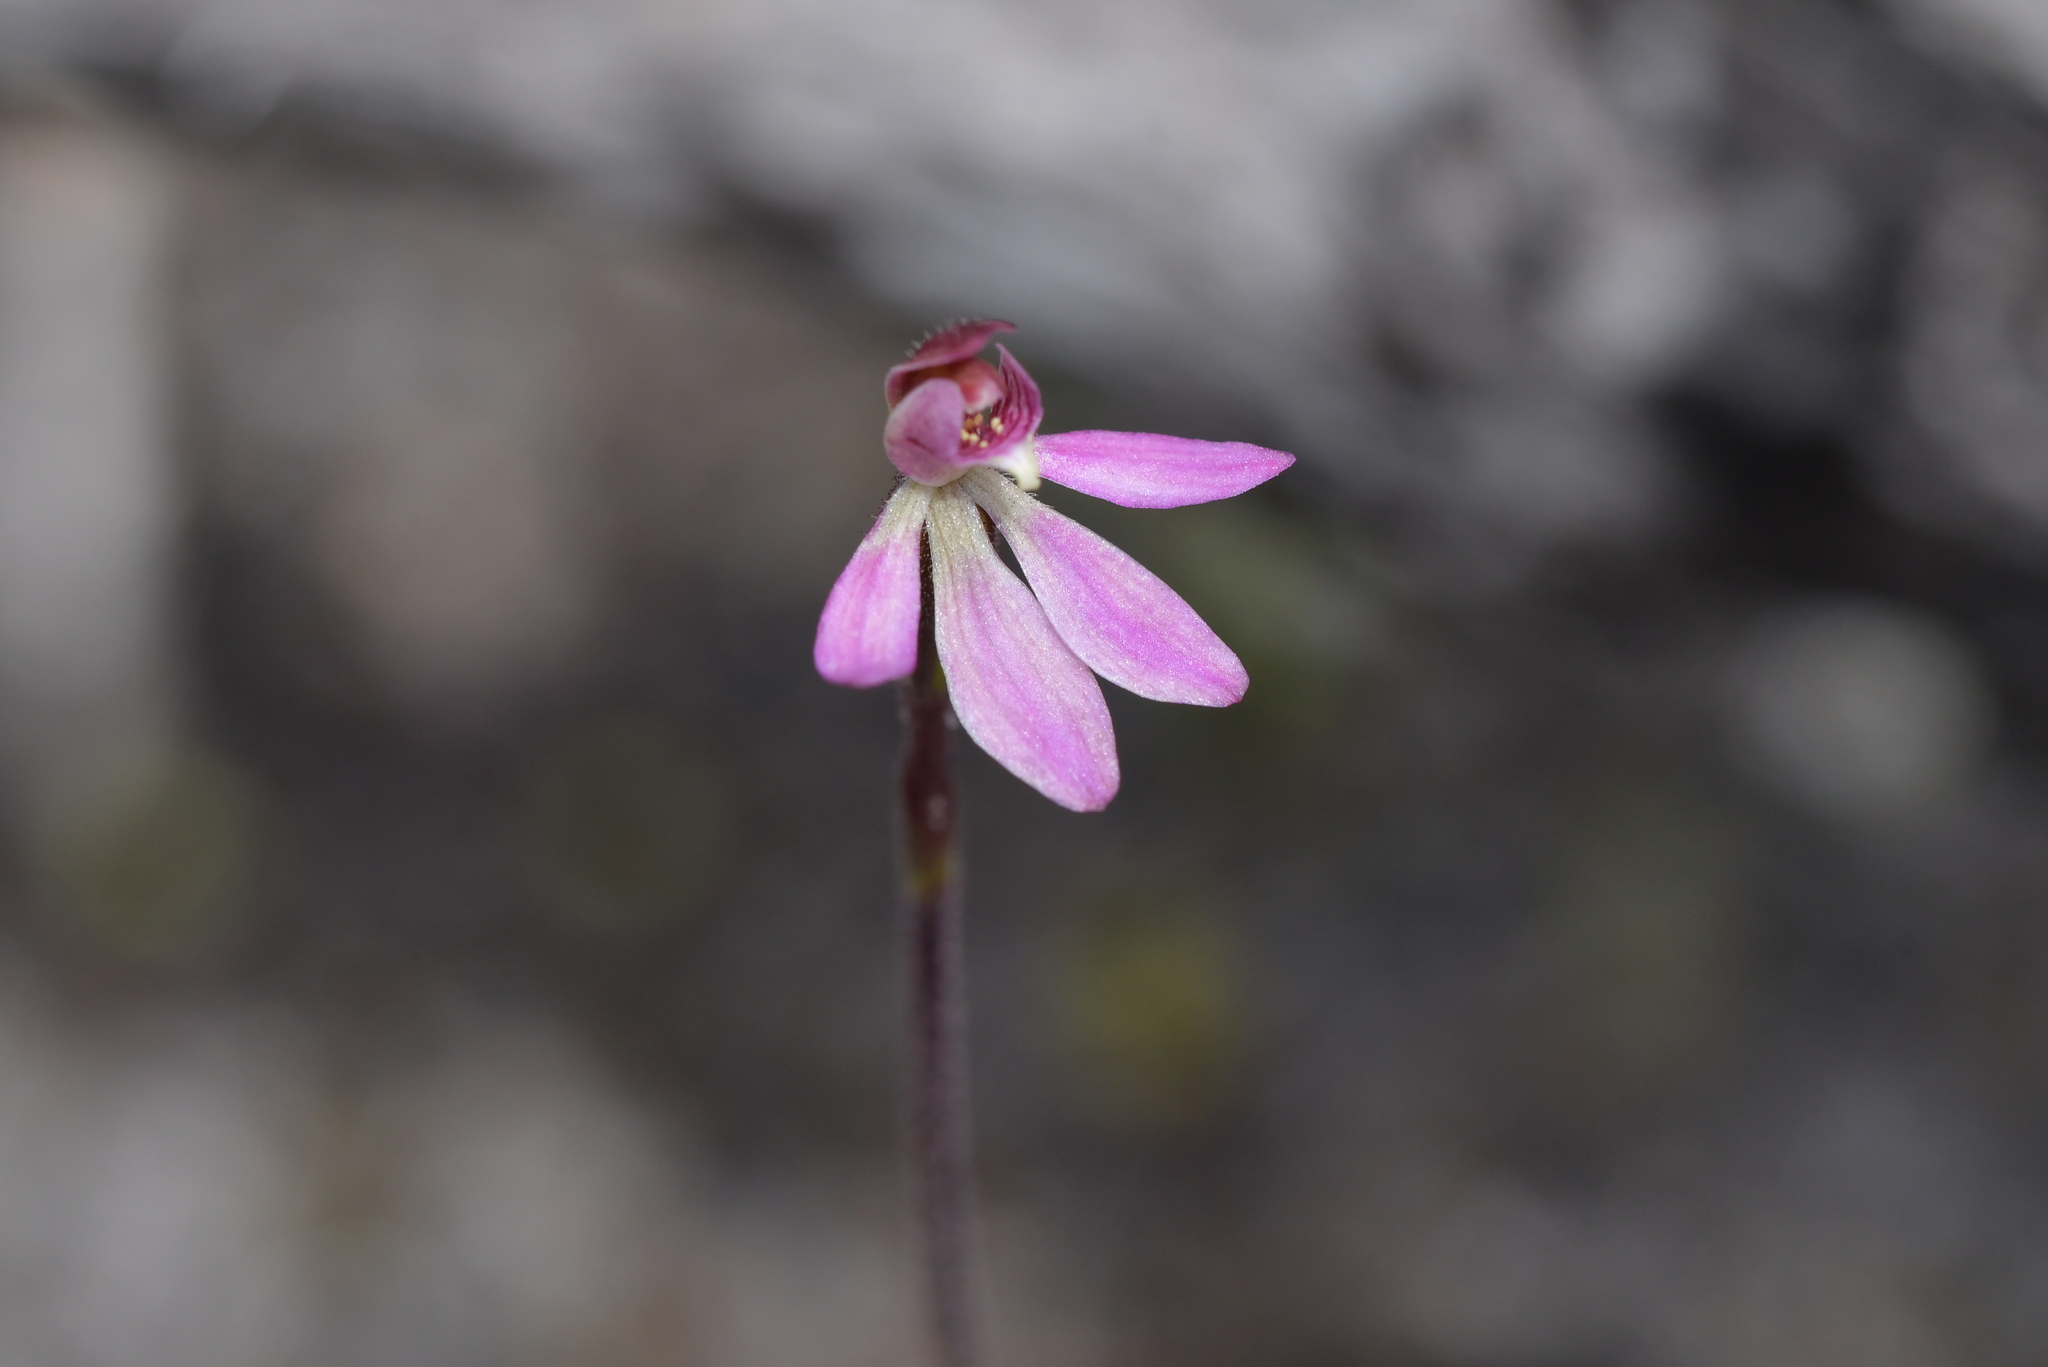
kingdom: Plantae
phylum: Tracheophyta
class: Liliopsida
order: Asparagales
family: Orchidaceae
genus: Caladenia
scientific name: Caladenia minor
